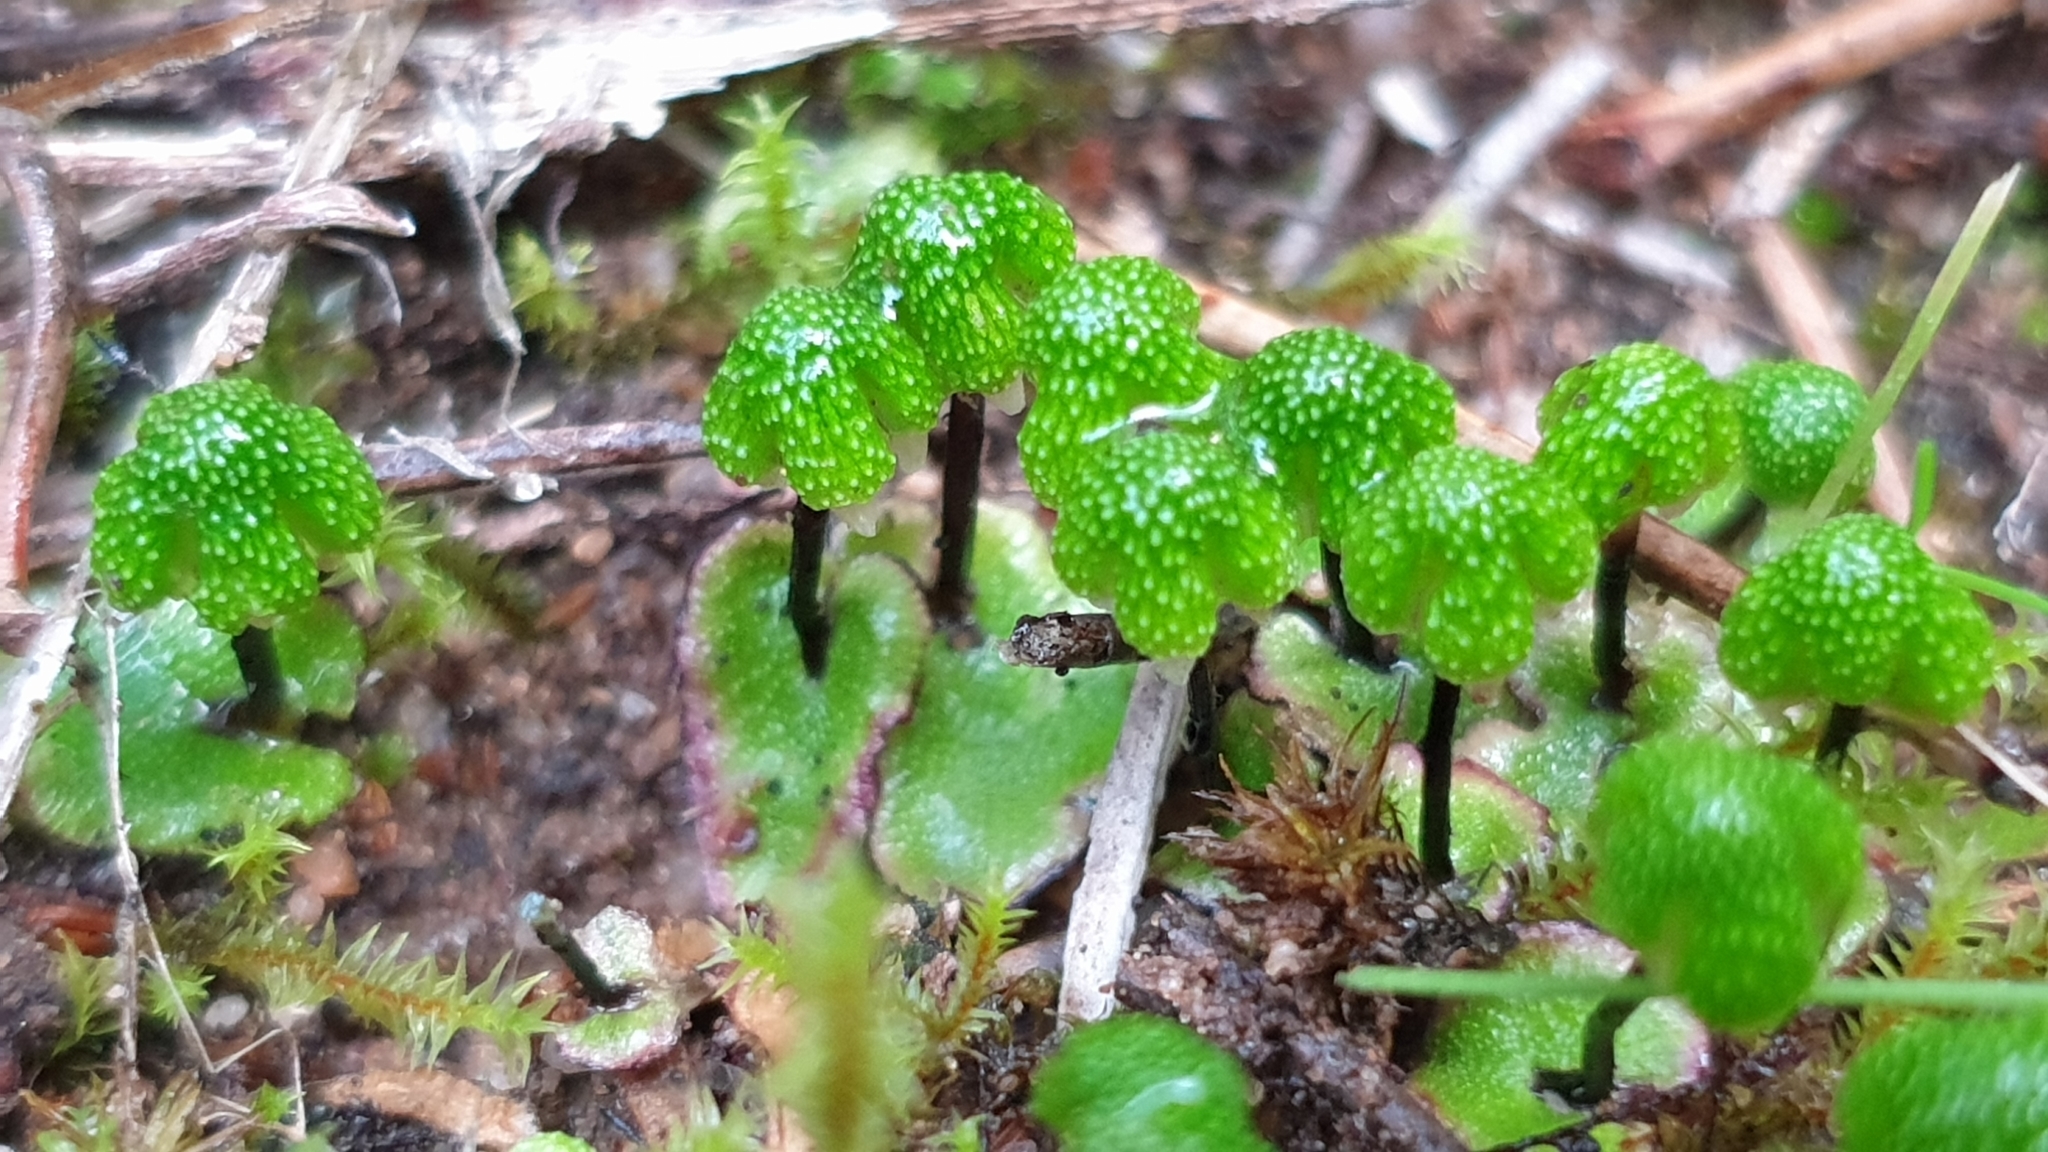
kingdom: Plantae
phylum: Marchantiophyta
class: Marchantiopsida
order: Marchantiales
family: Aytoniaceae
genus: Asterella
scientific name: Asterella drummondii
